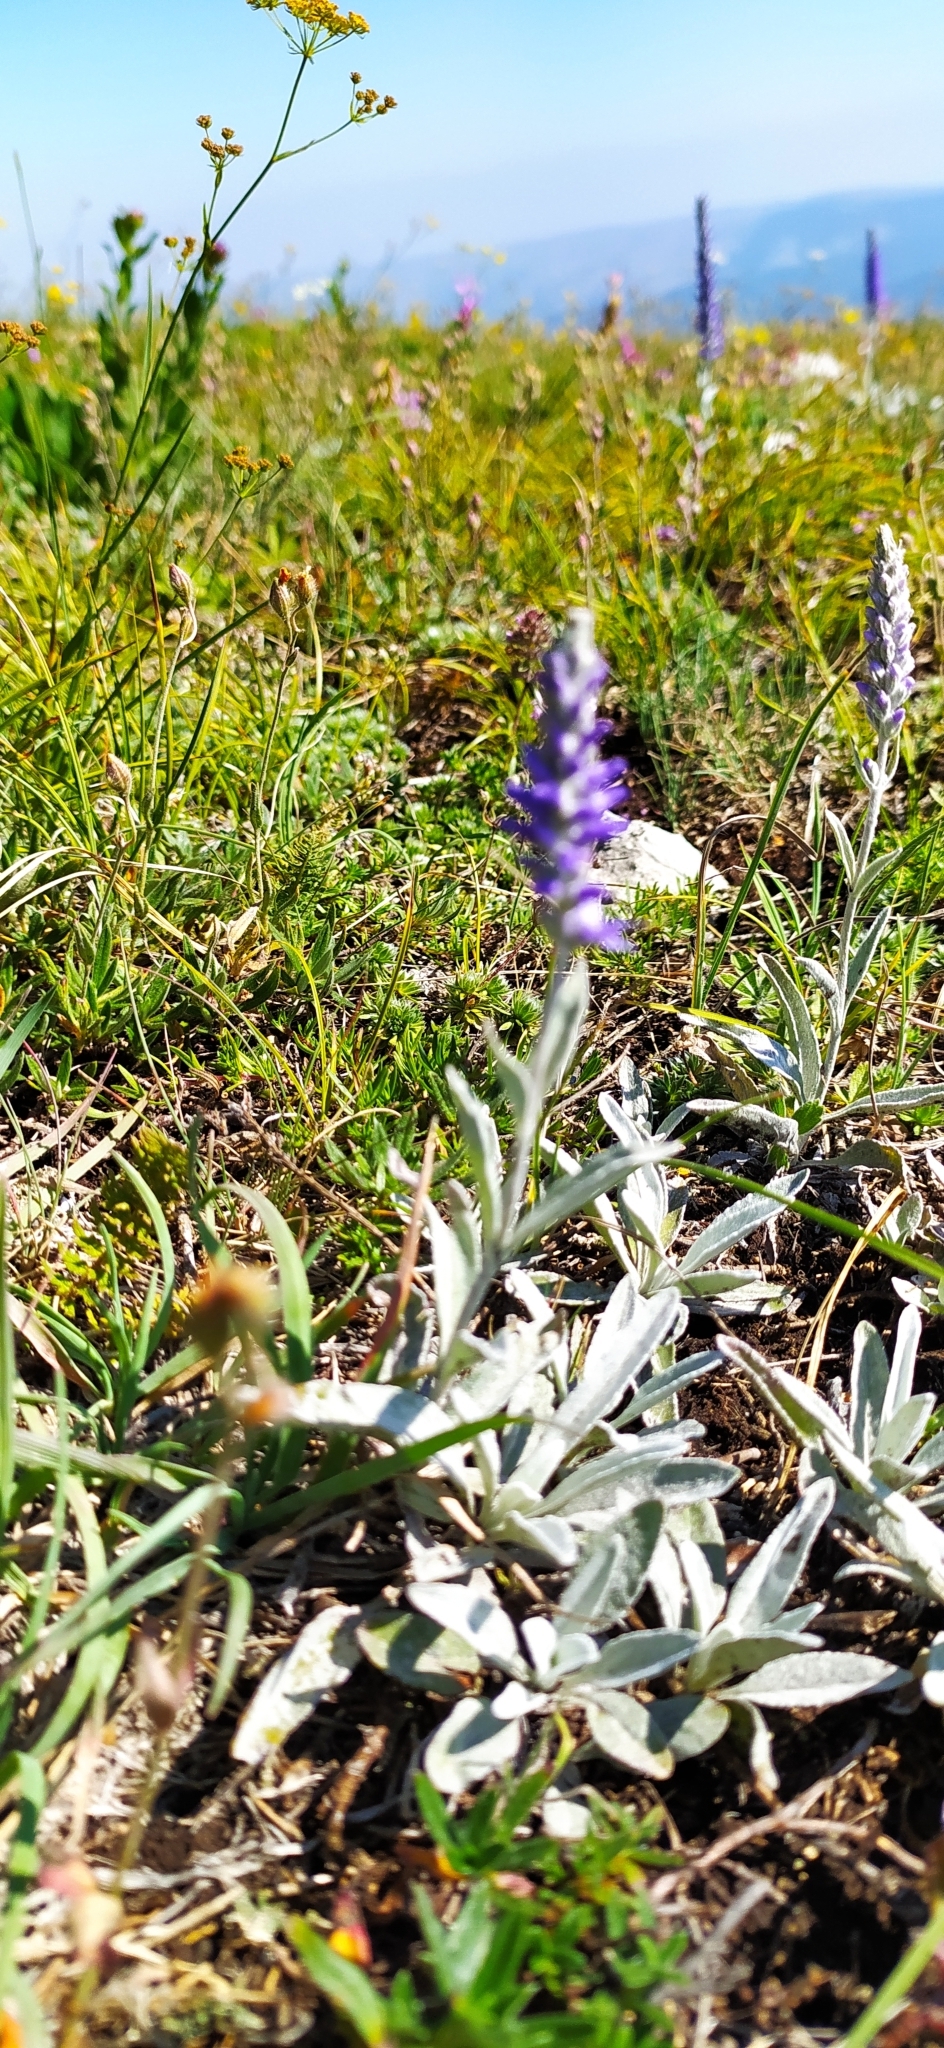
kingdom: Plantae
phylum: Tracheophyta
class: Magnoliopsida
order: Lamiales
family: Plantaginaceae
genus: Veronica
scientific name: Veronica incana
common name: Silver speedwell
